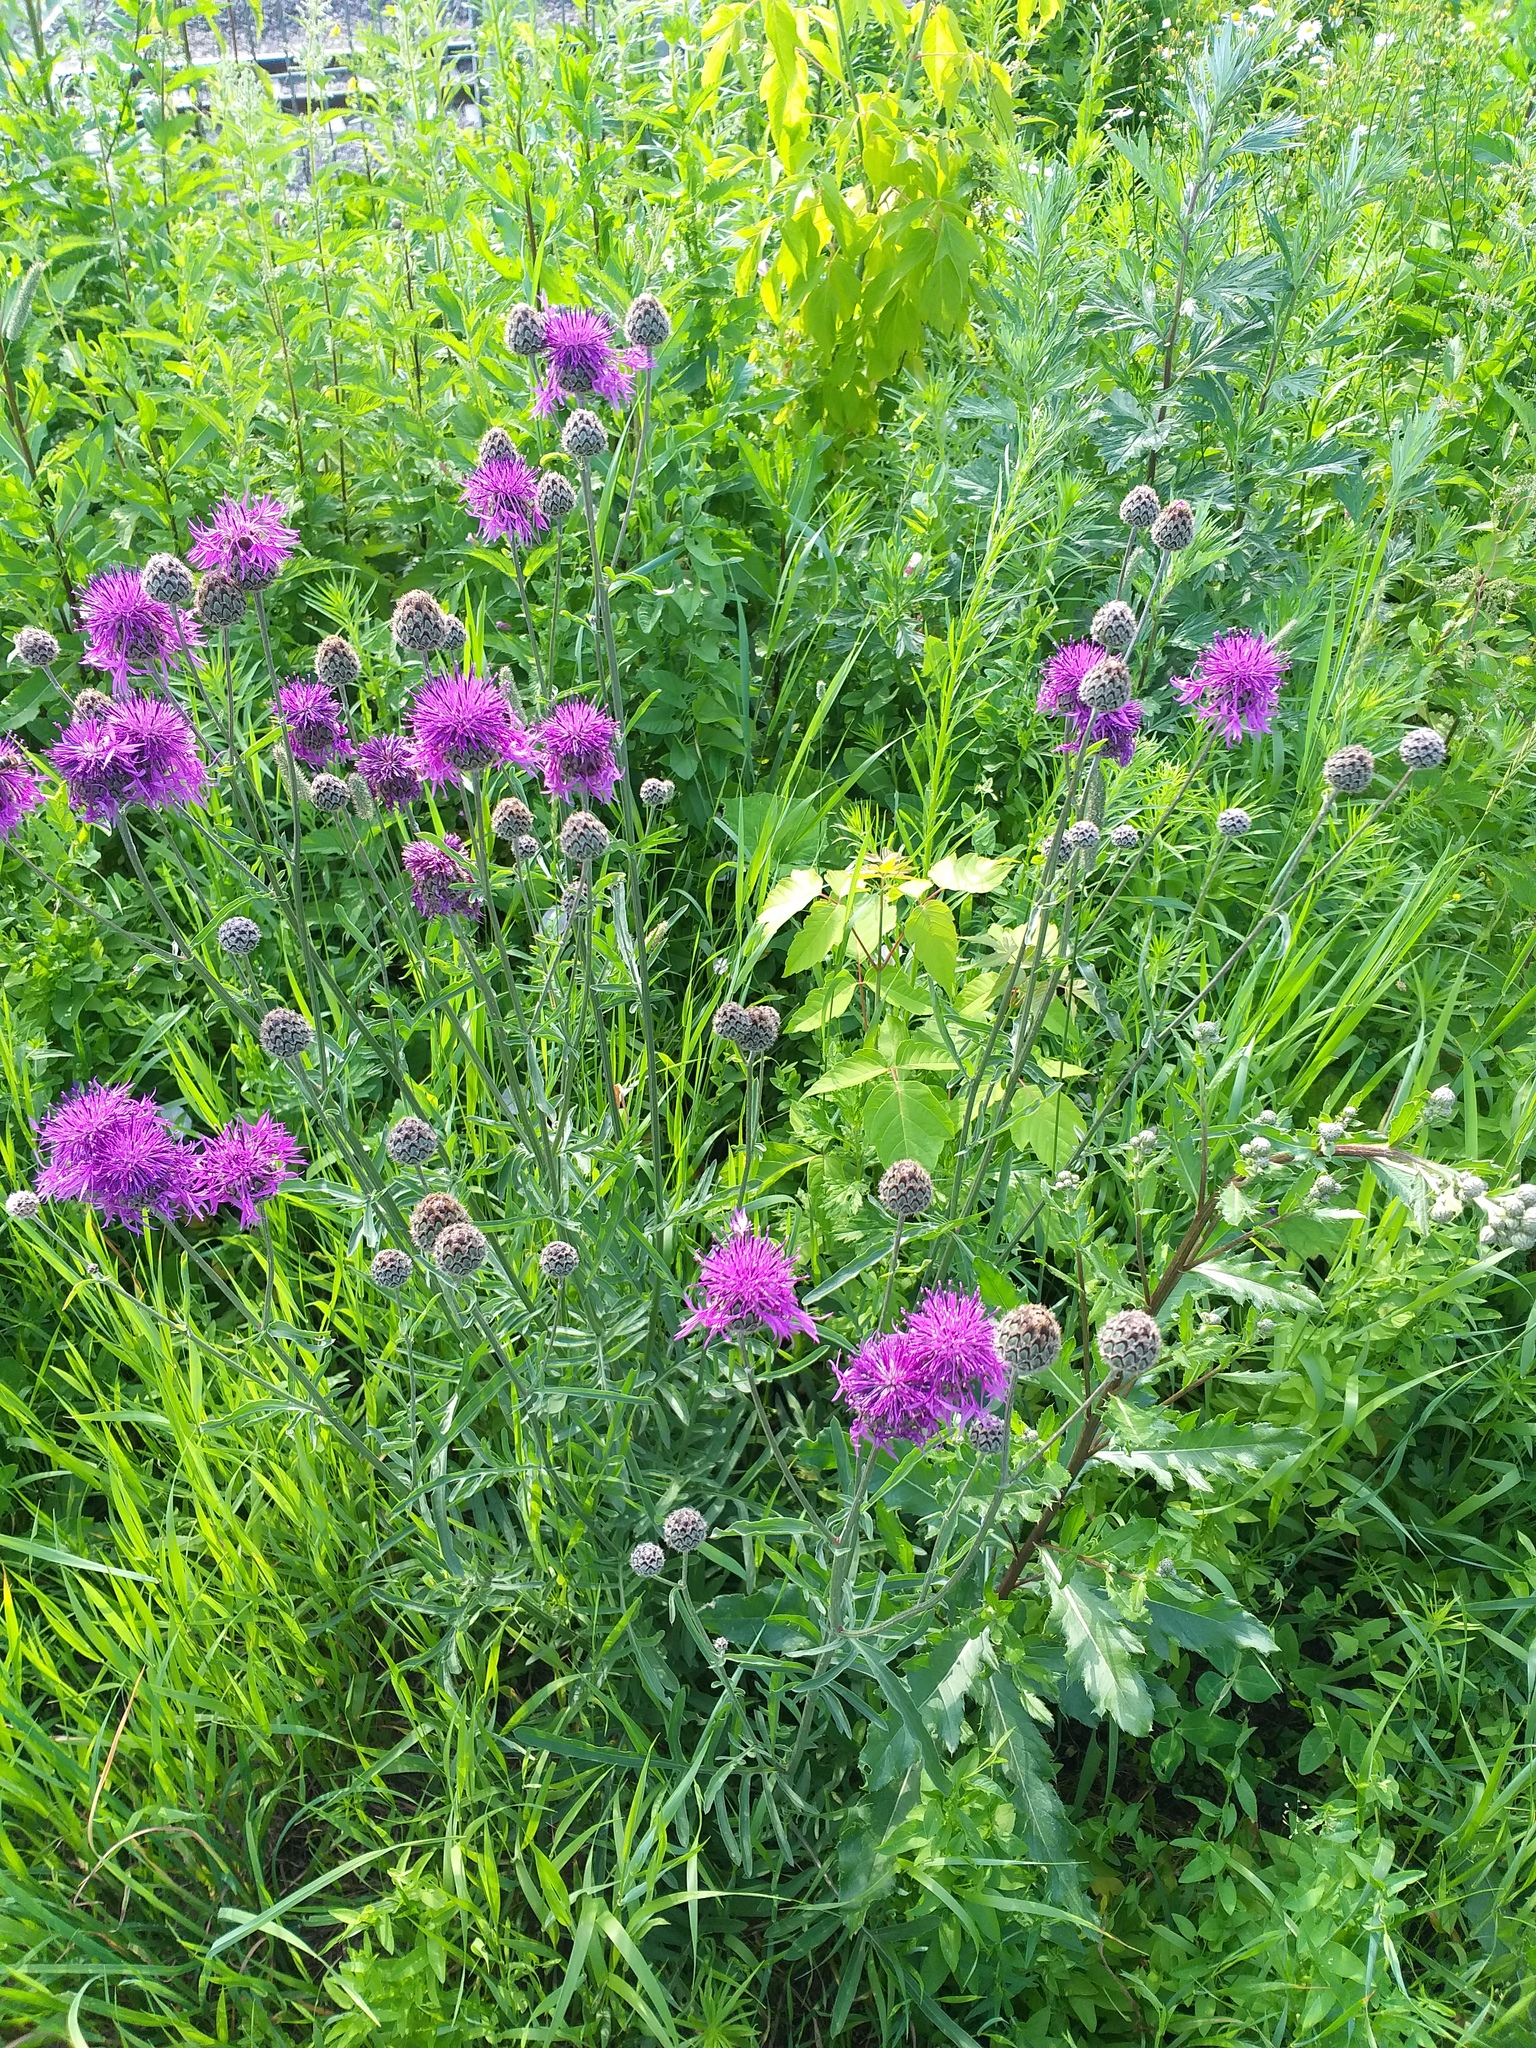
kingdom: Plantae
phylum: Tracheophyta
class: Magnoliopsida
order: Asterales
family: Asteraceae
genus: Centaurea
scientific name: Centaurea scabiosa
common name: Greater knapweed
